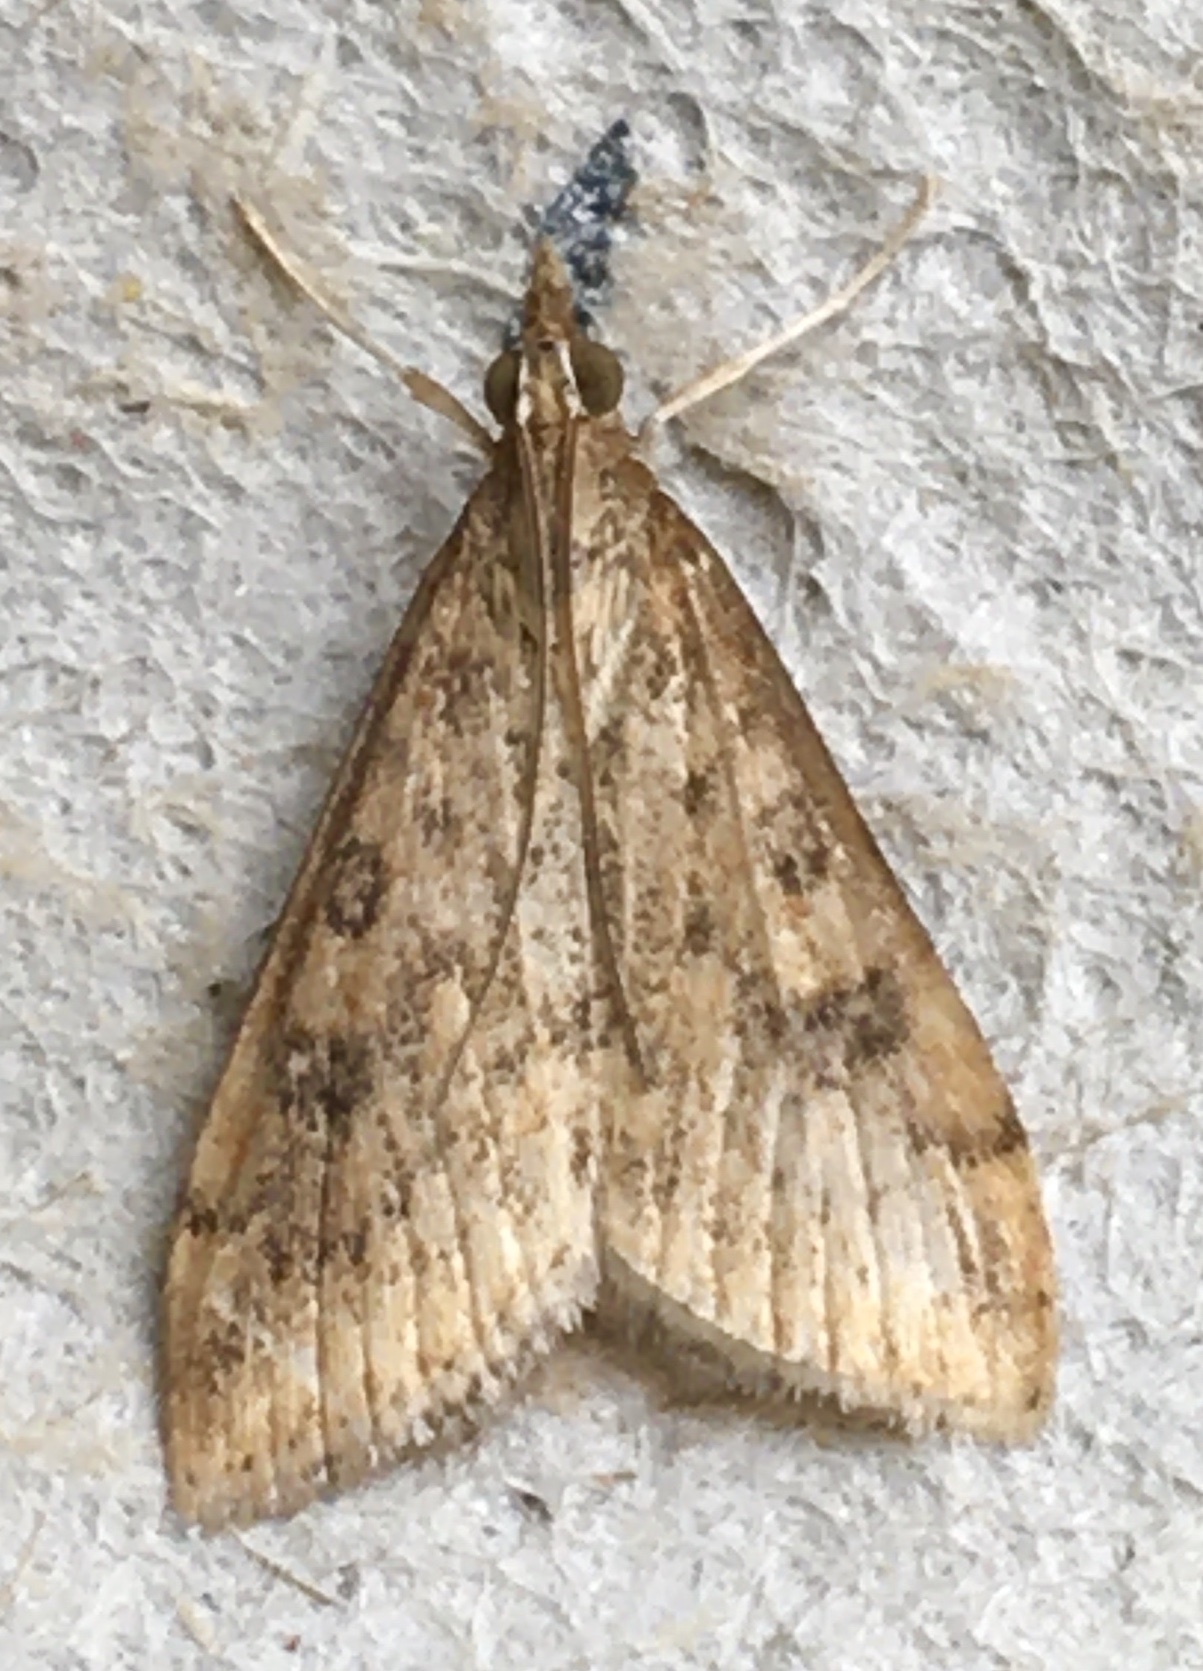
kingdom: Animalia
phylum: Arthropoda
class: Insecta
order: Lepidoptera
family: Crambidae
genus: Udea
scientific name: Udea ferrugalis
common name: Rusty dot
